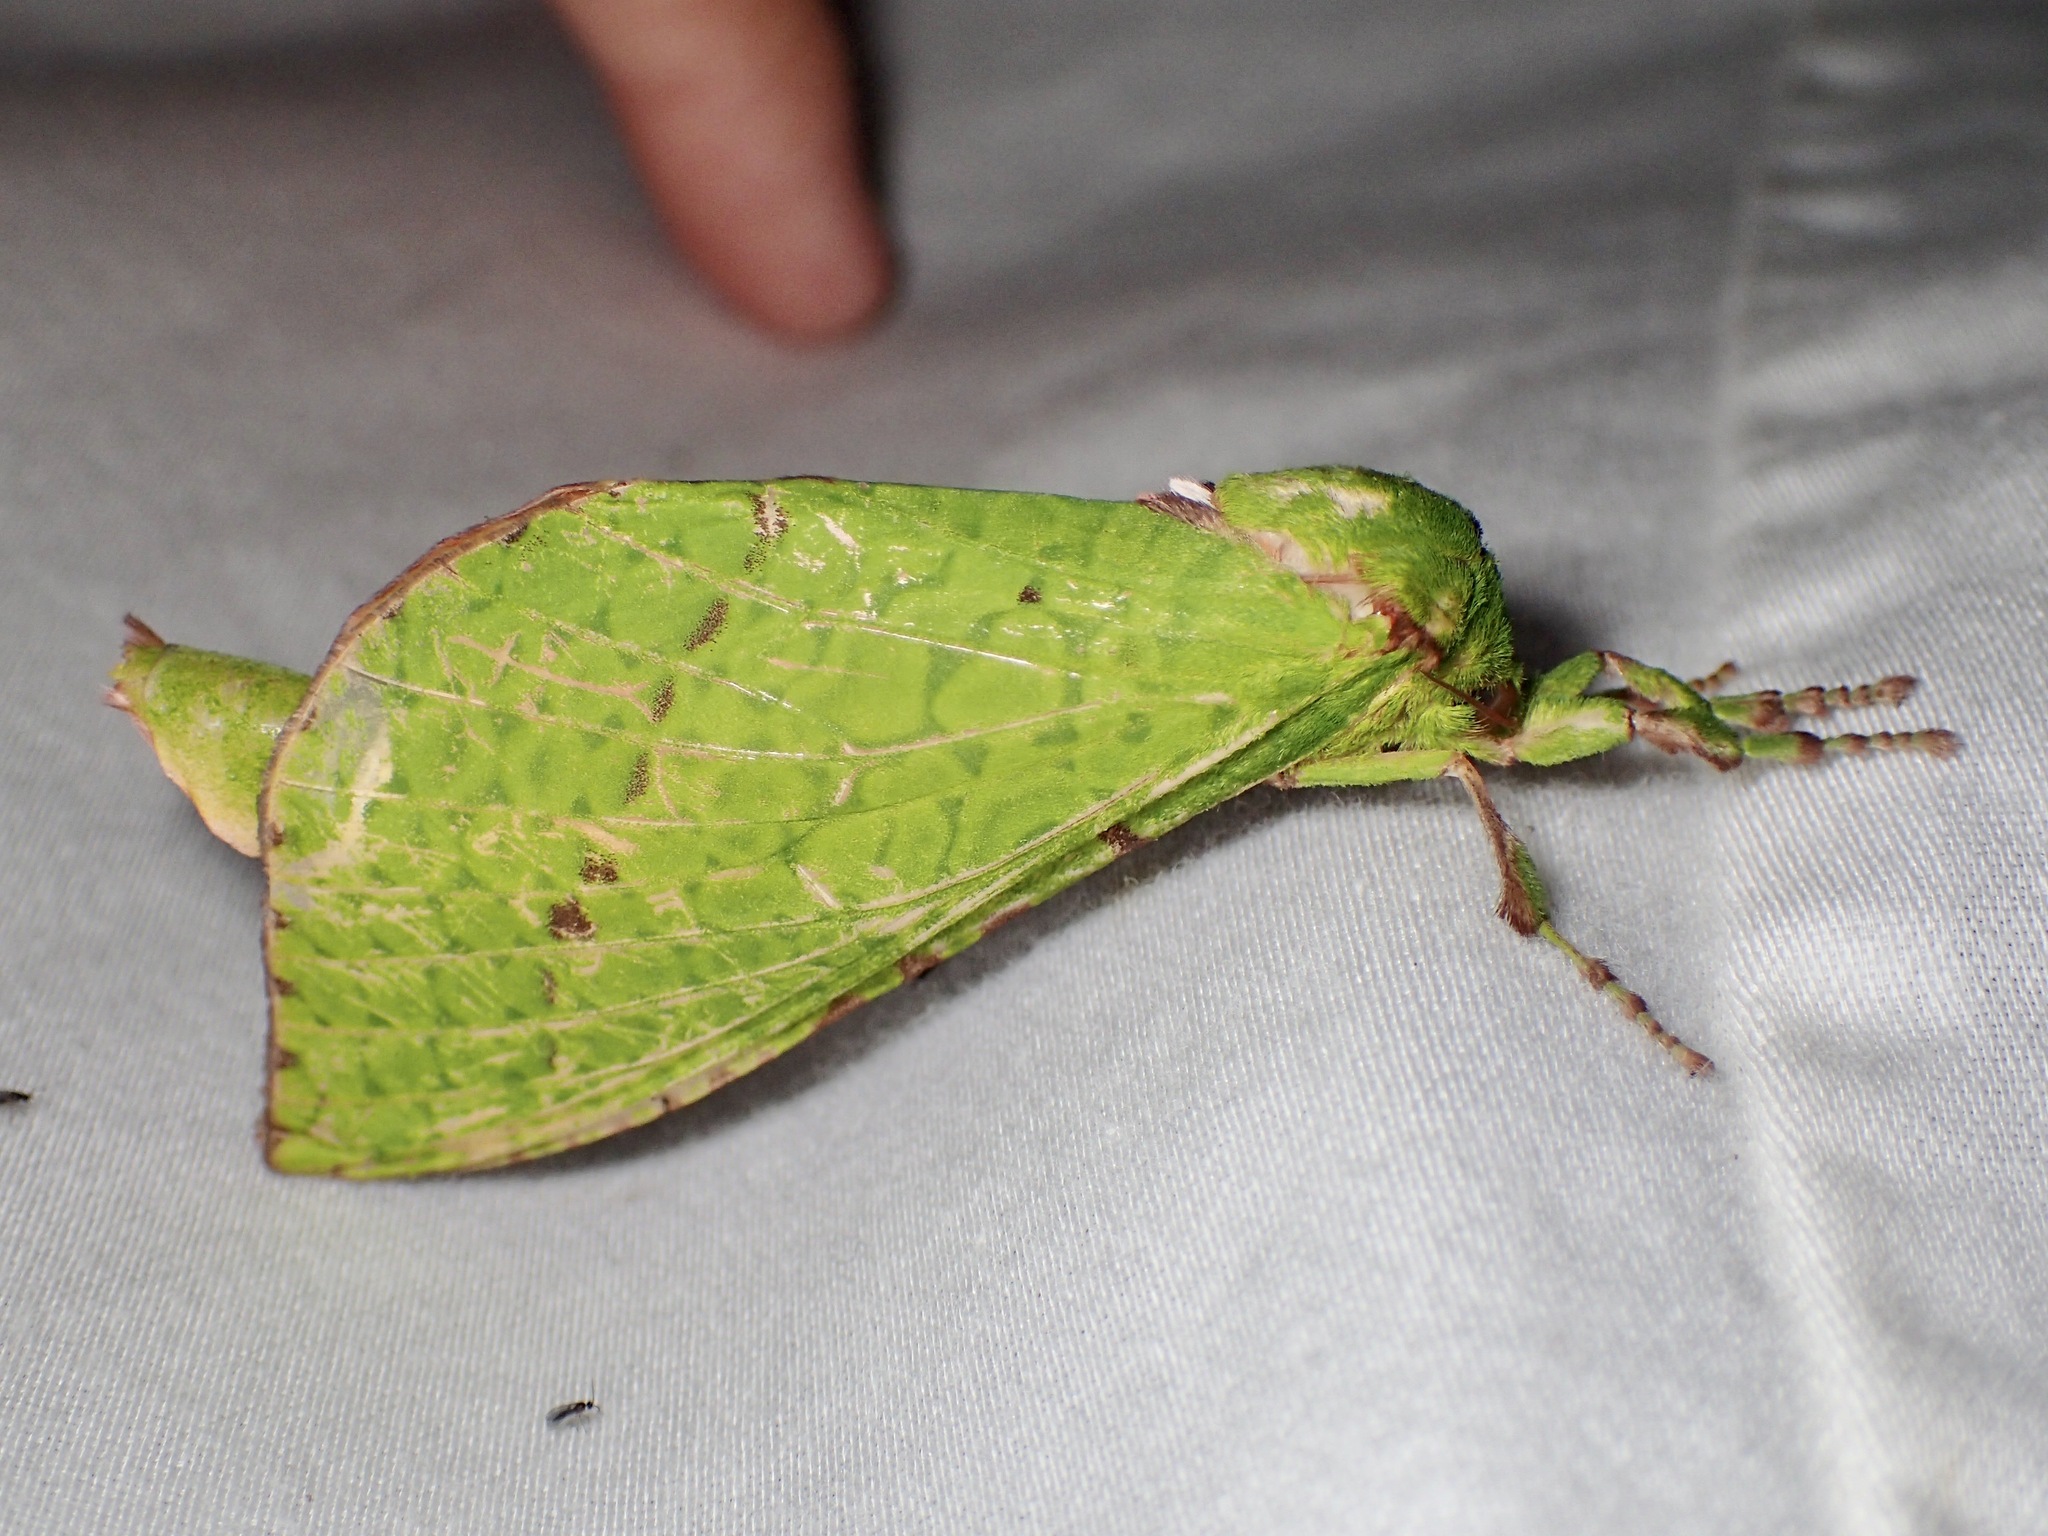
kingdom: Animalia
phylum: Arthropoda
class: Insecta
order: Lepidoptera
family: Hepialidae
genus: Aenetus
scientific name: Aenetus edwardsi
